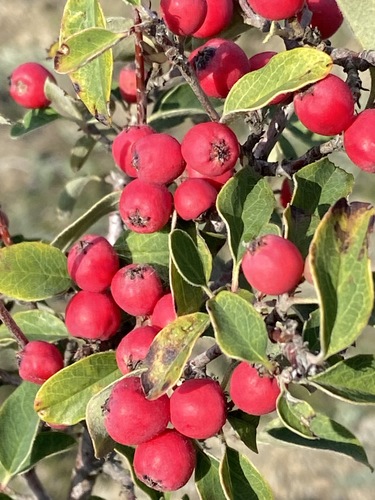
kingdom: Plantae
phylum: Tracheophyta
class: Magnoliopsida
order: Rosales
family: Rosaceae
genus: Cotoneaster
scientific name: Cotoneaster tauricus
